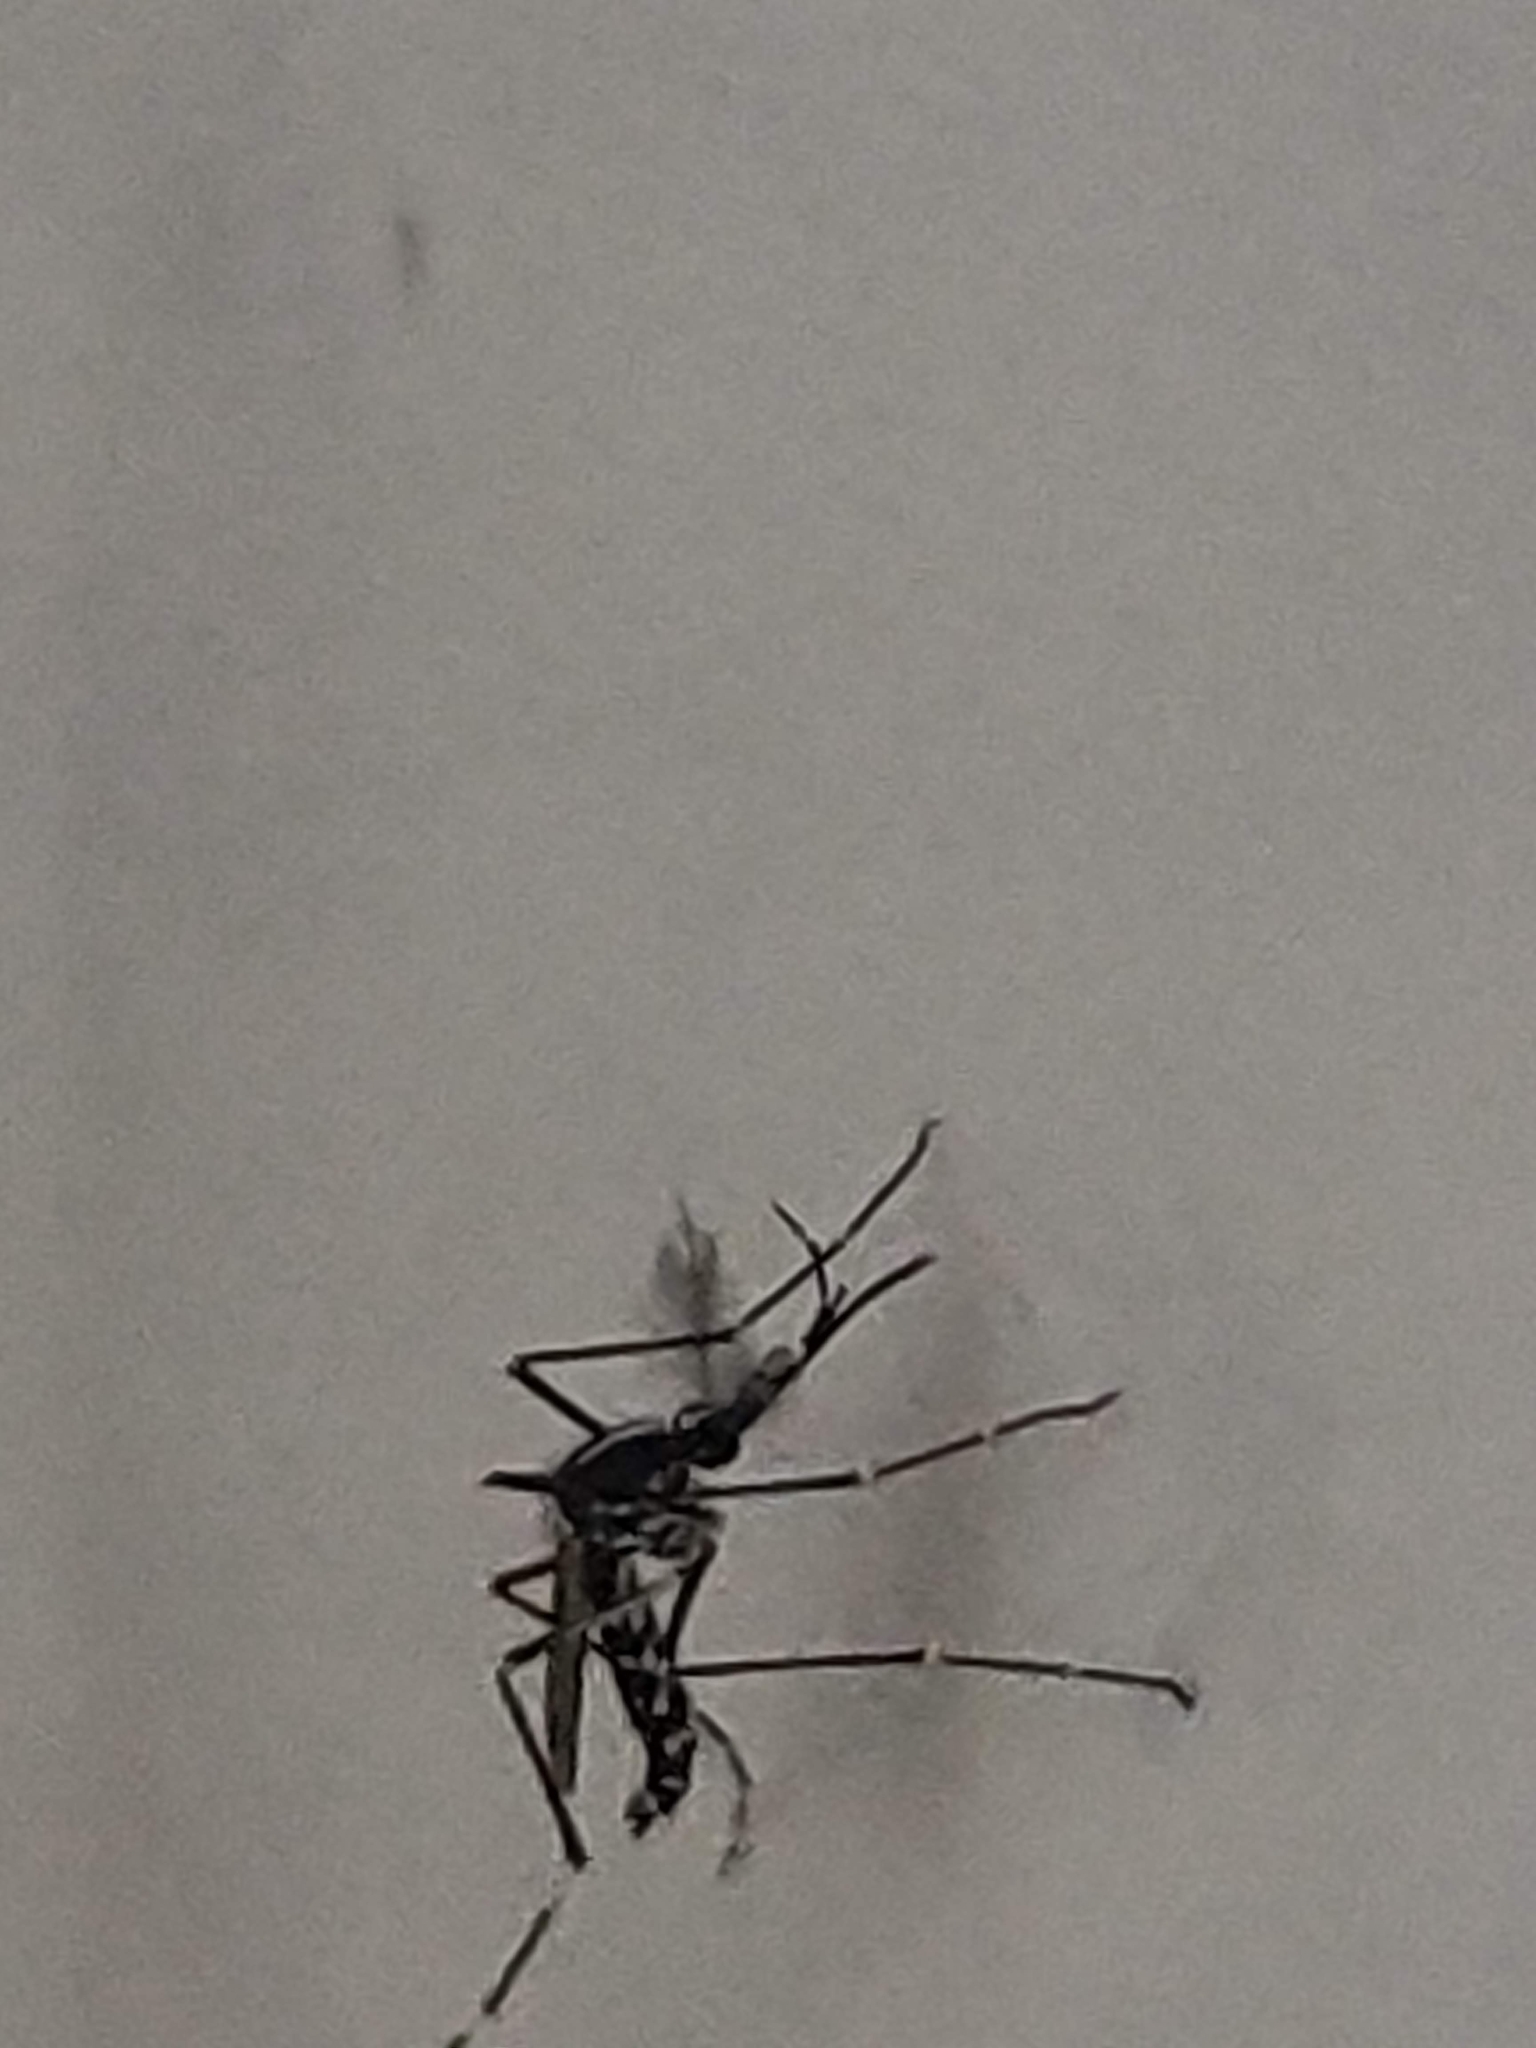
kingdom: Animalia
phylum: Arthropoda
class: Insecta
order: Diptera
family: Culicidae
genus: Aedes
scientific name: Aedes albopictus
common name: Tiger mosquito
